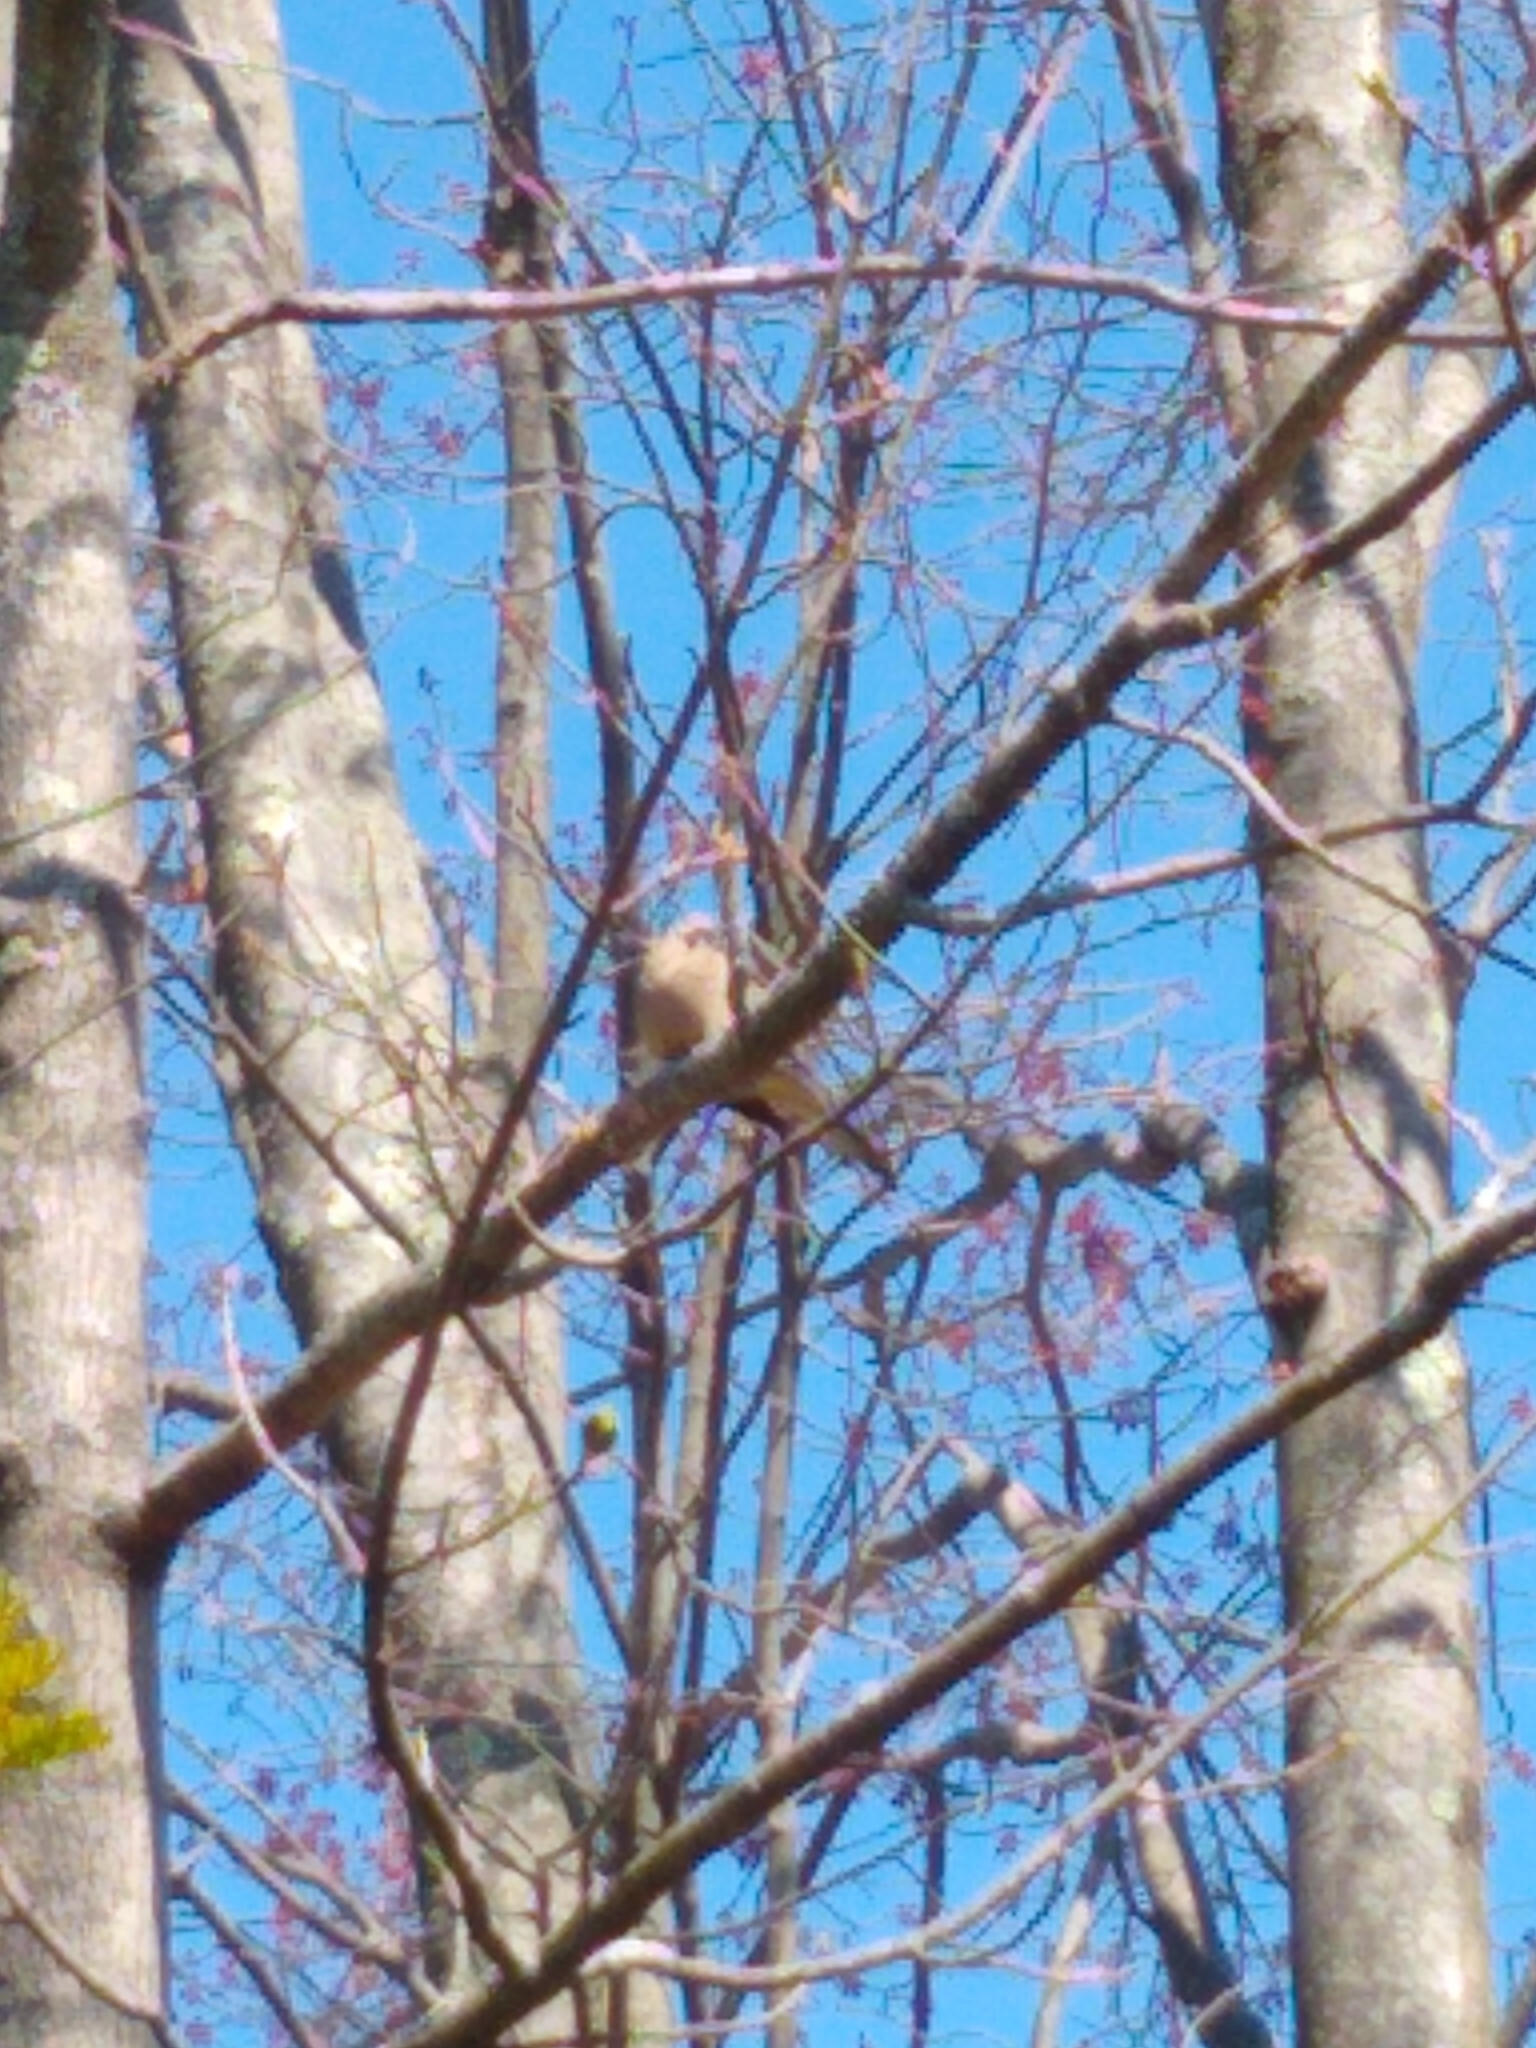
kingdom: Animalia
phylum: Chordata
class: Aves
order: Columbiformes
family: Columbidae
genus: Zenaida
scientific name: Zenaida macroura
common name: Mourning dove
